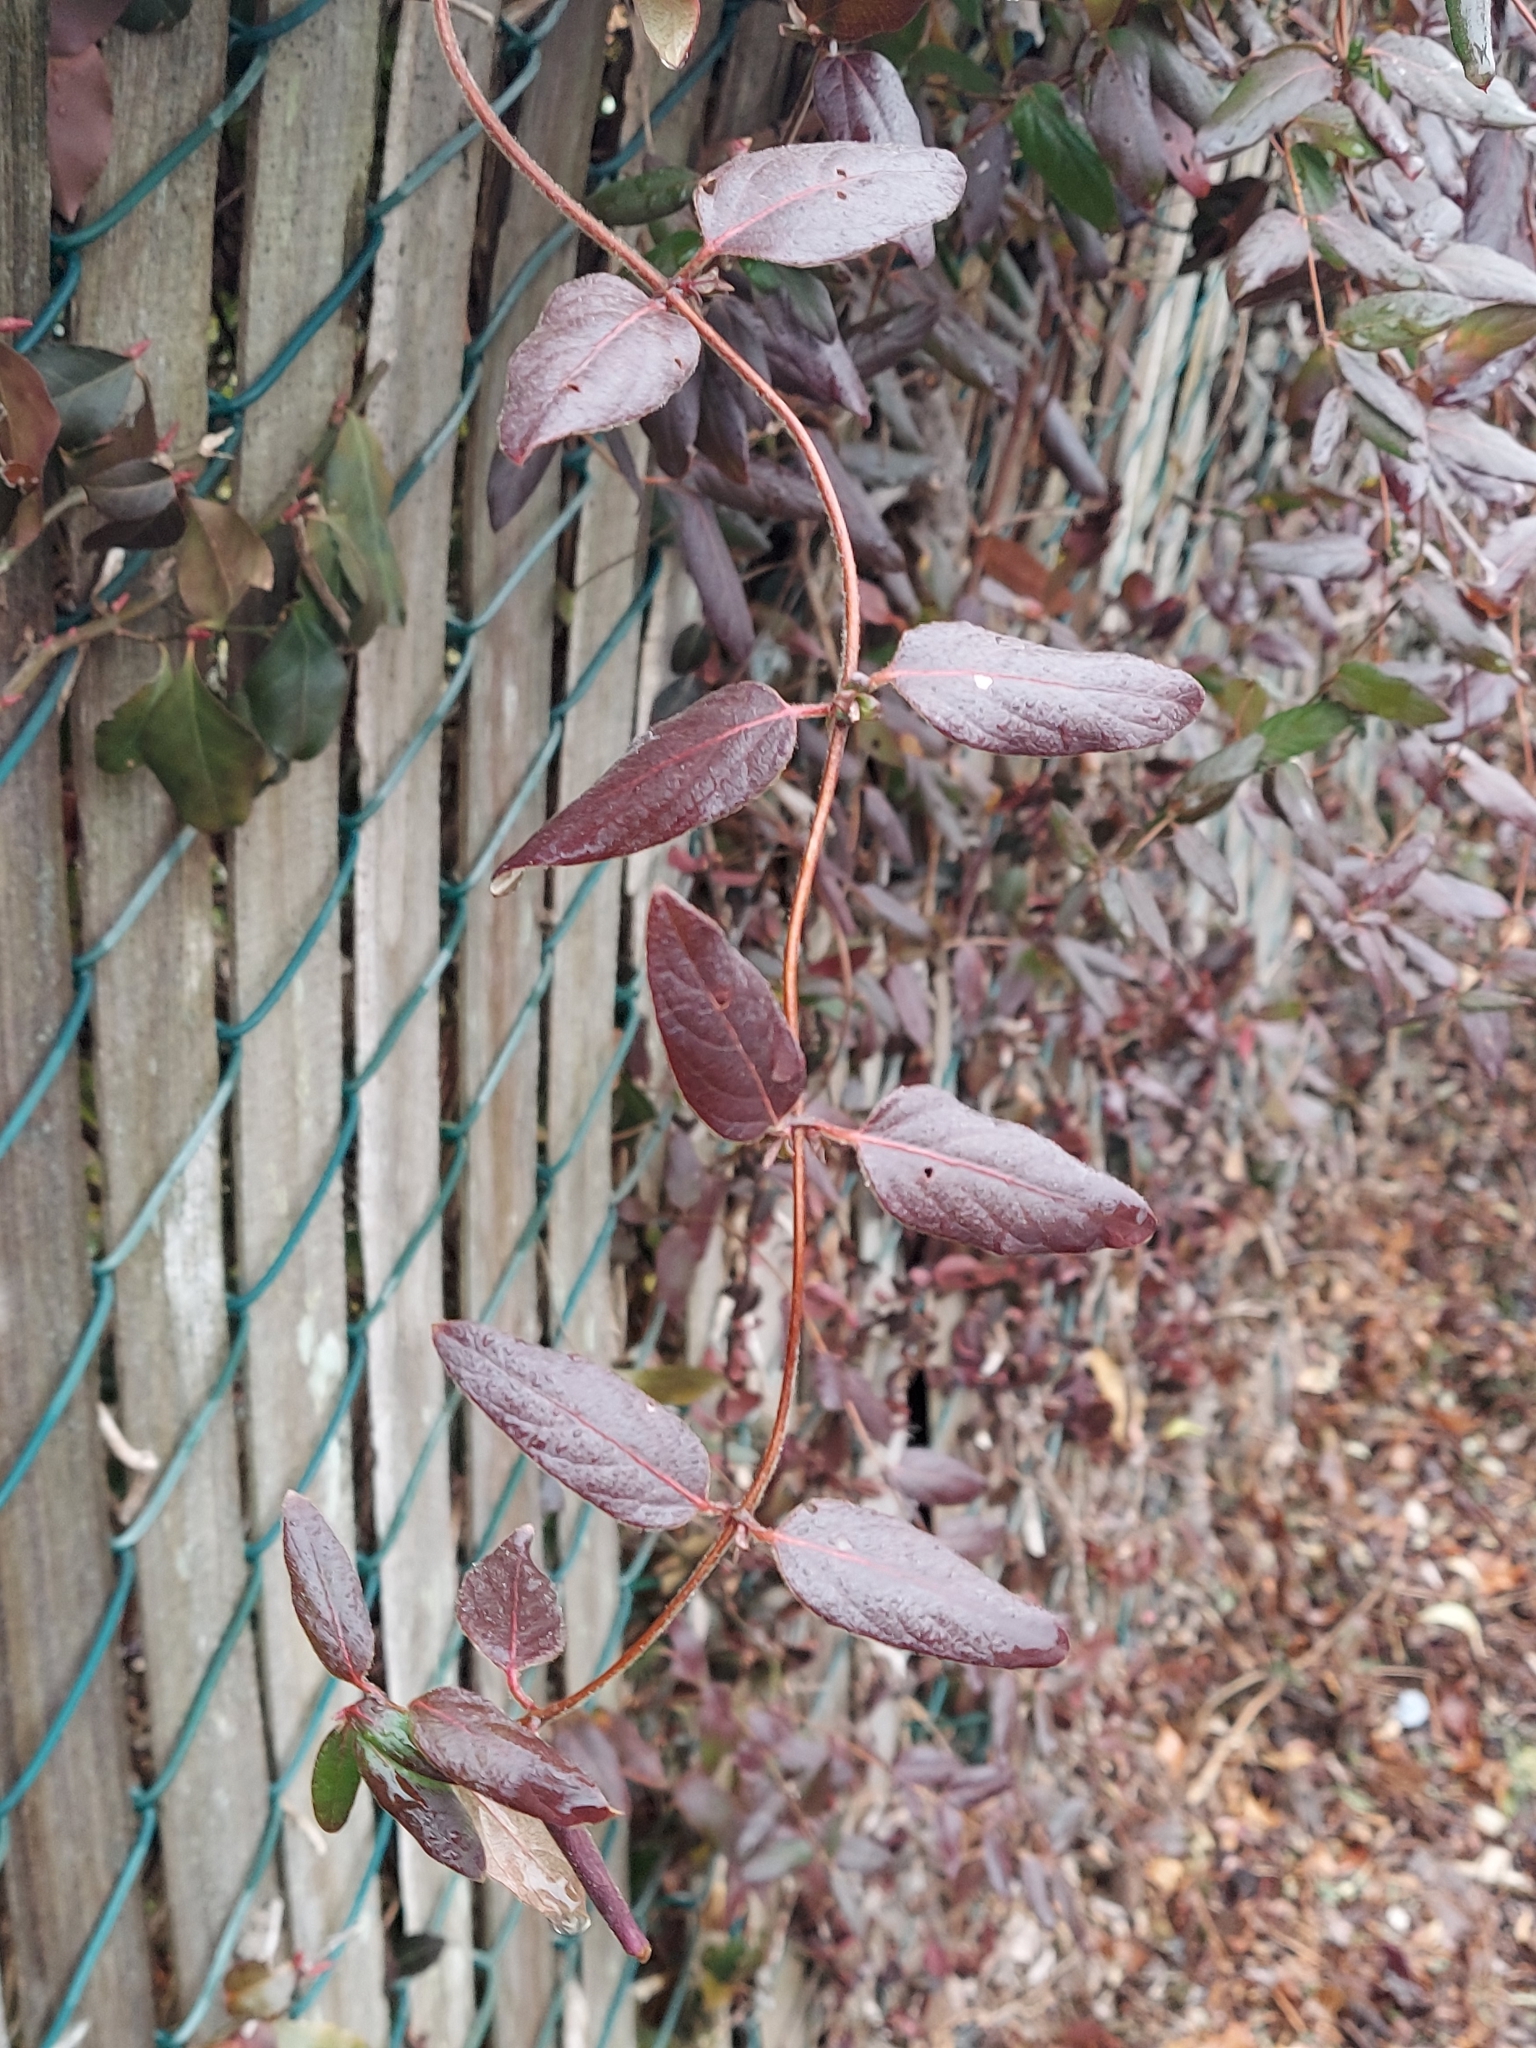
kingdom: Plantae
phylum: Tracheophyta
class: Magnoliopsida
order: Dipsacales
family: Caprifoliaceae
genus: Lonicera
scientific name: Lonicera japonica
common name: Japanese honeysuckle
